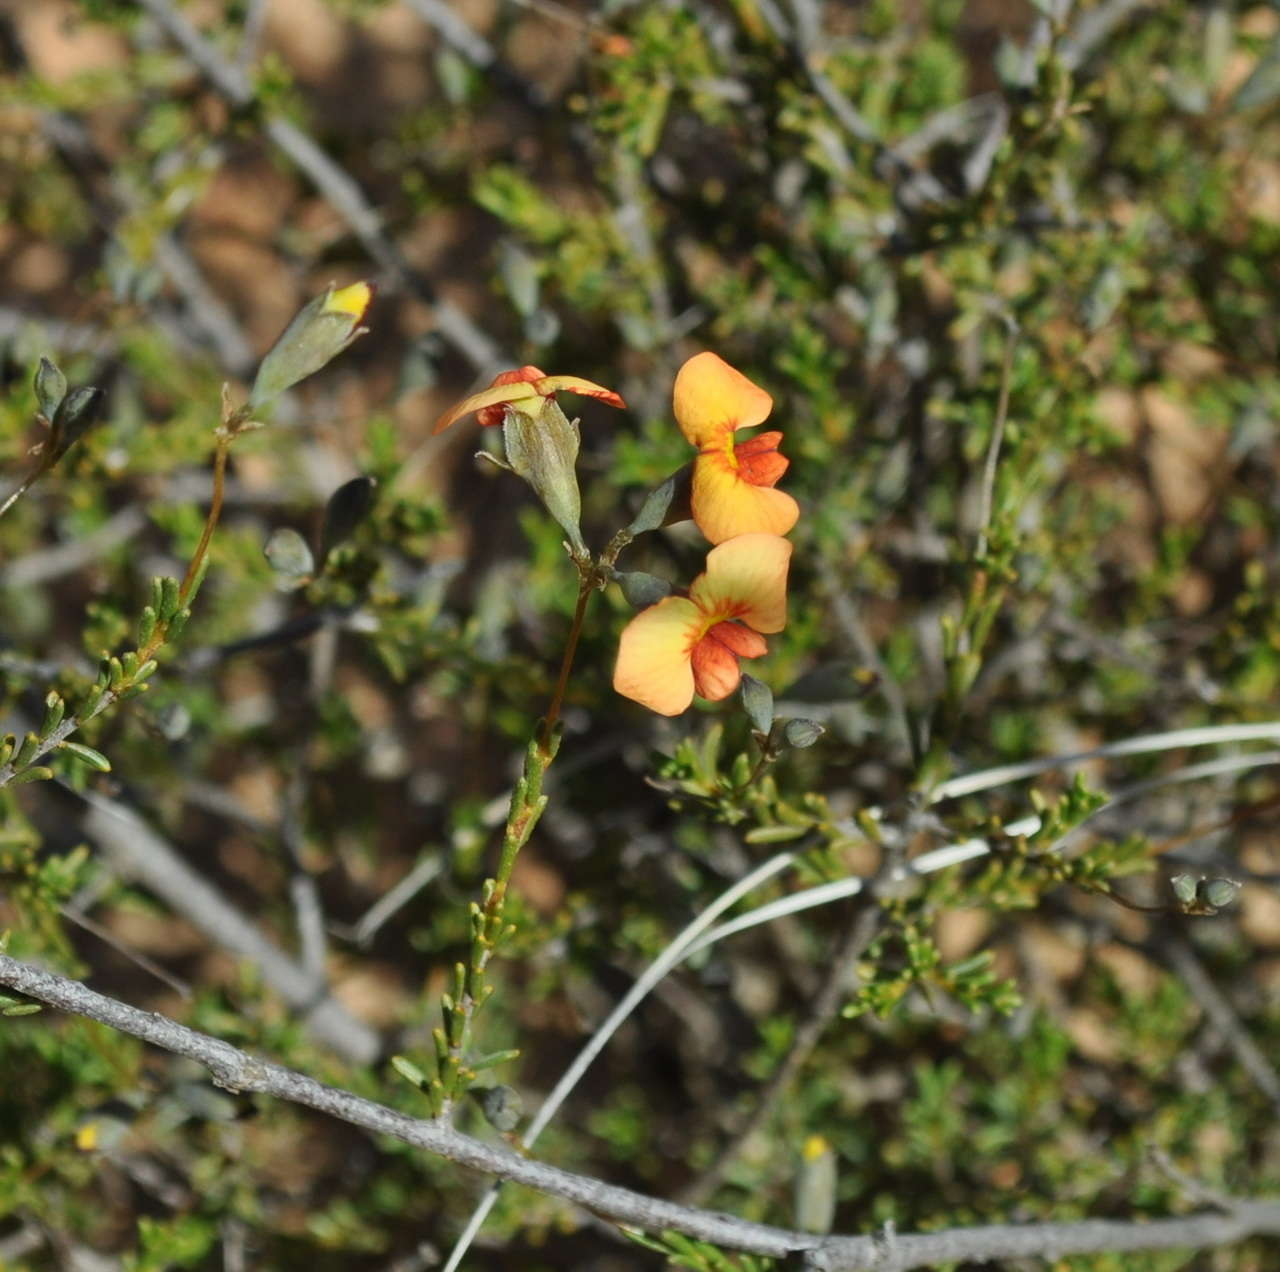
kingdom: Plantae
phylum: Tracheophyta
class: Magnoliopsida
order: Fabales
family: Fabaceae
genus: Dillwynia
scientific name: Dillwynia hispida
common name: Red parrot-pea
